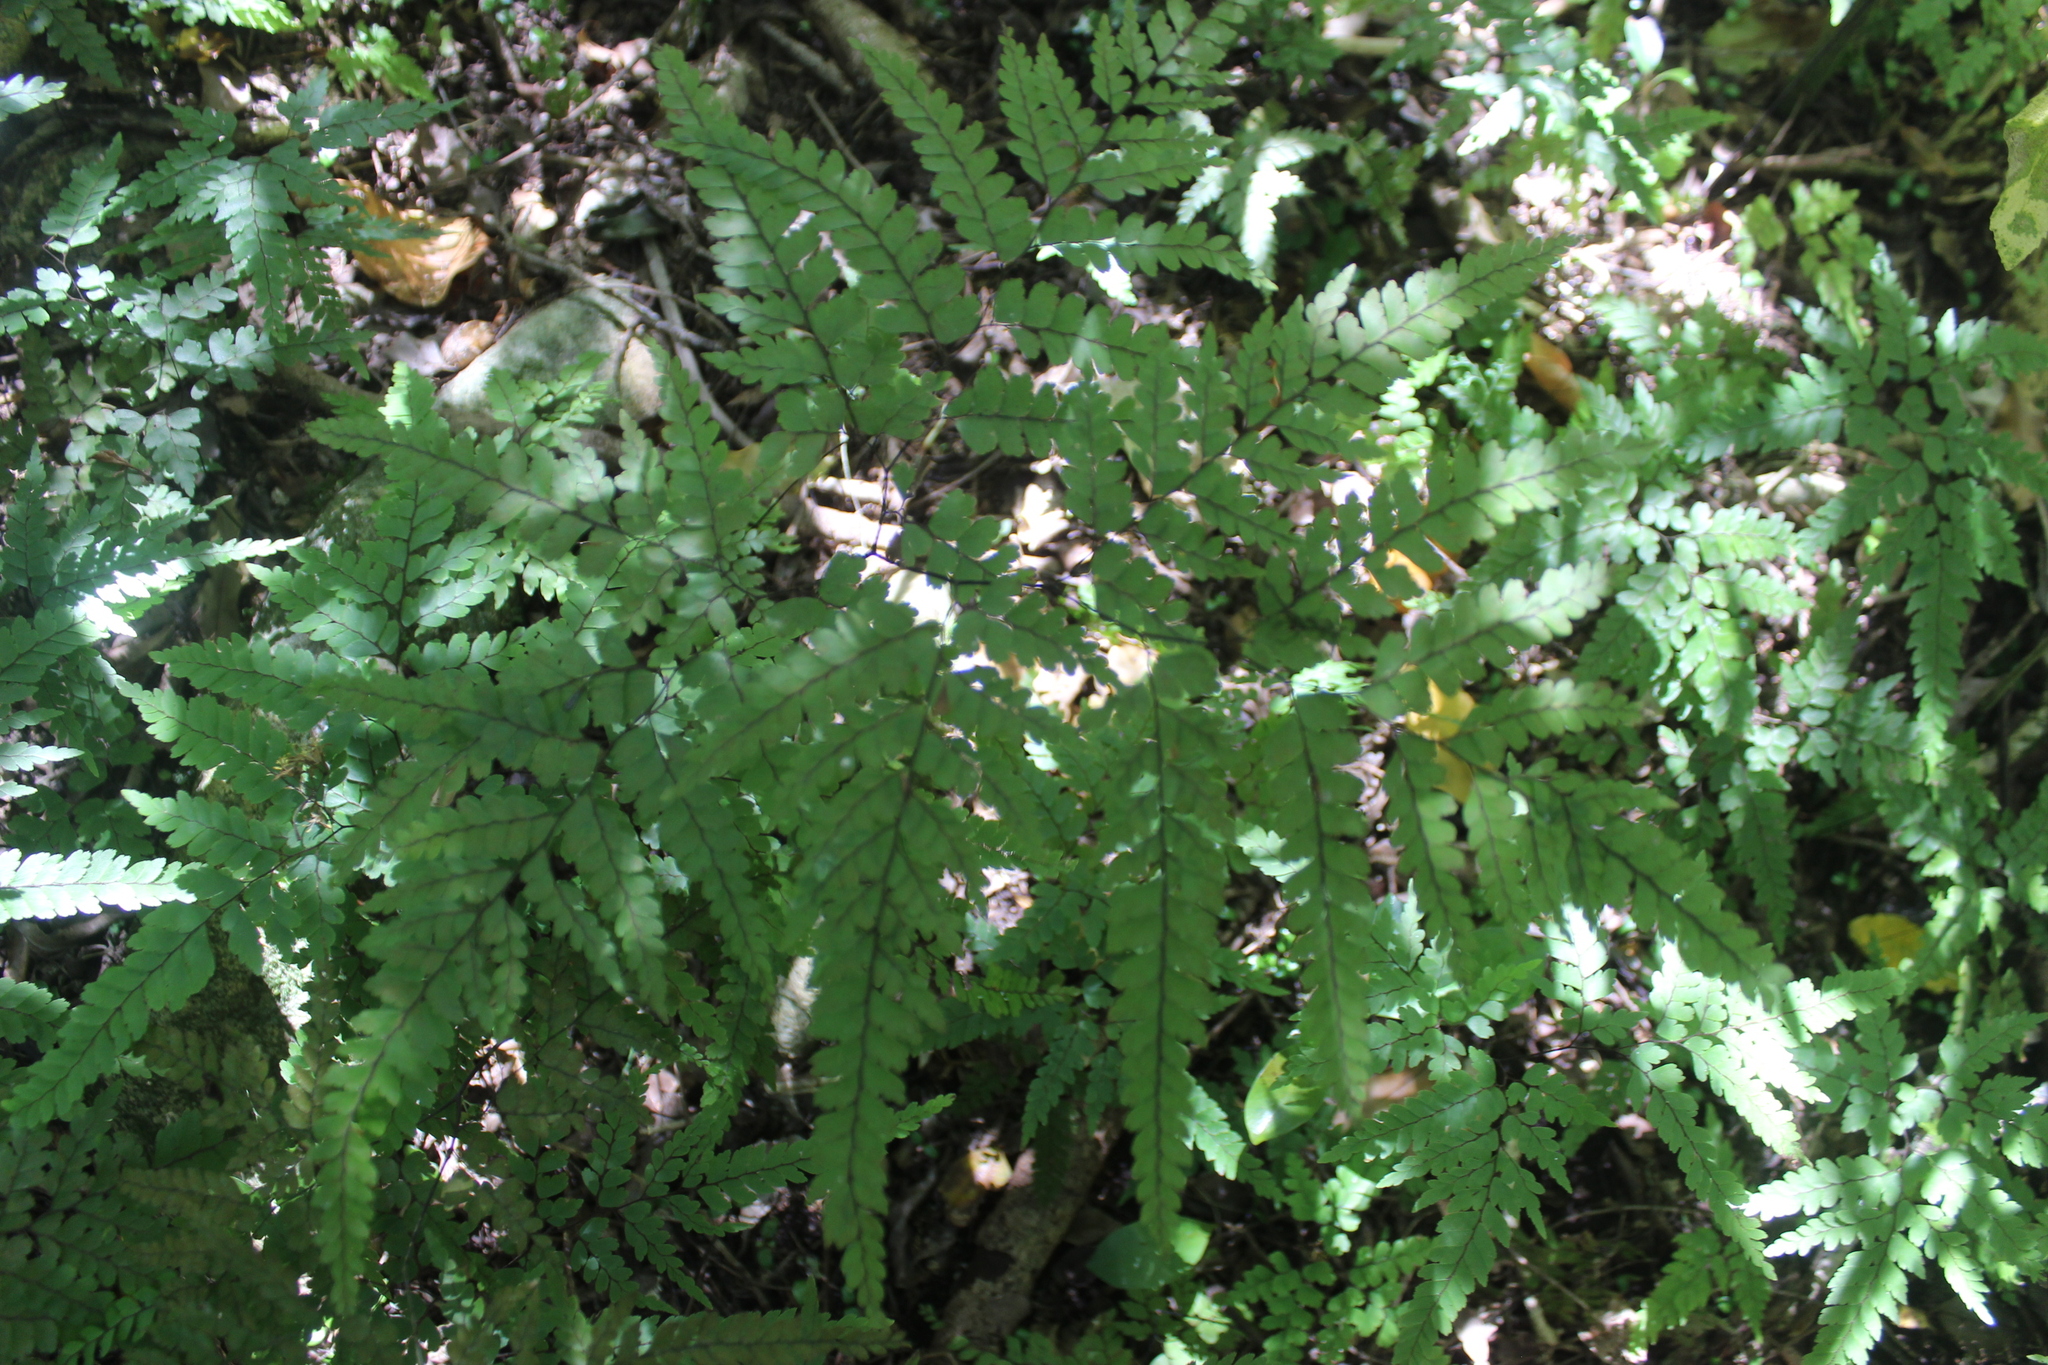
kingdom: Plantae
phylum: Tracheophyta
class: Polypodiopsida
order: Polypodiales
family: Pteridaceae
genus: Adiantum
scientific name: Adiantum formosum
